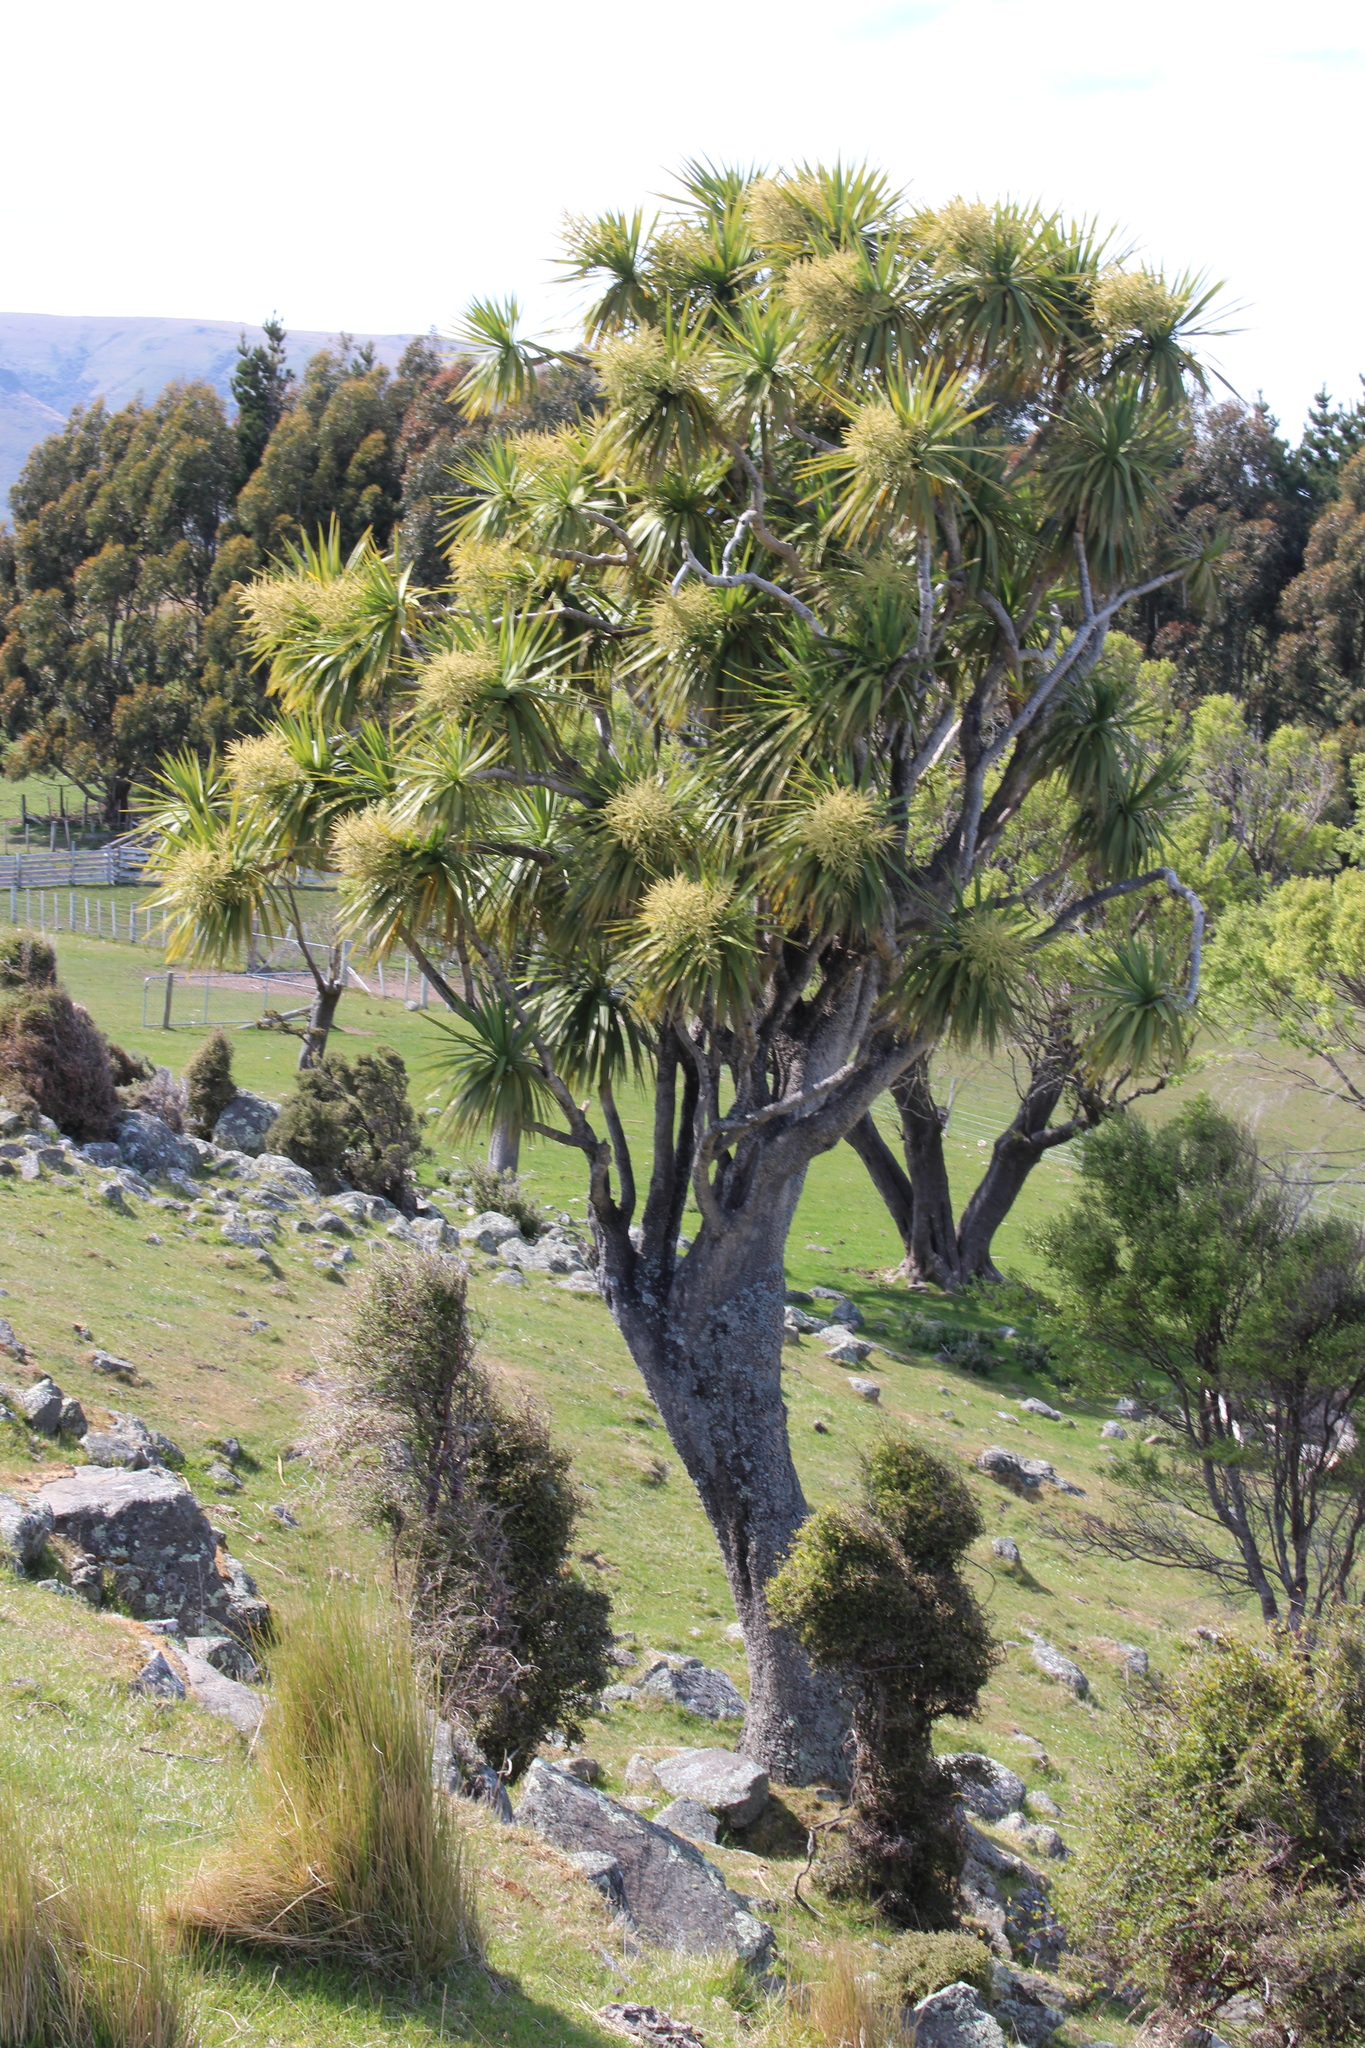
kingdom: Plantae
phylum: Tracheophyta
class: Liliopsida
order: Asparagales
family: Asparagaceae
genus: Cordyline
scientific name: Cordyline australis
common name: Cabbage-palm
